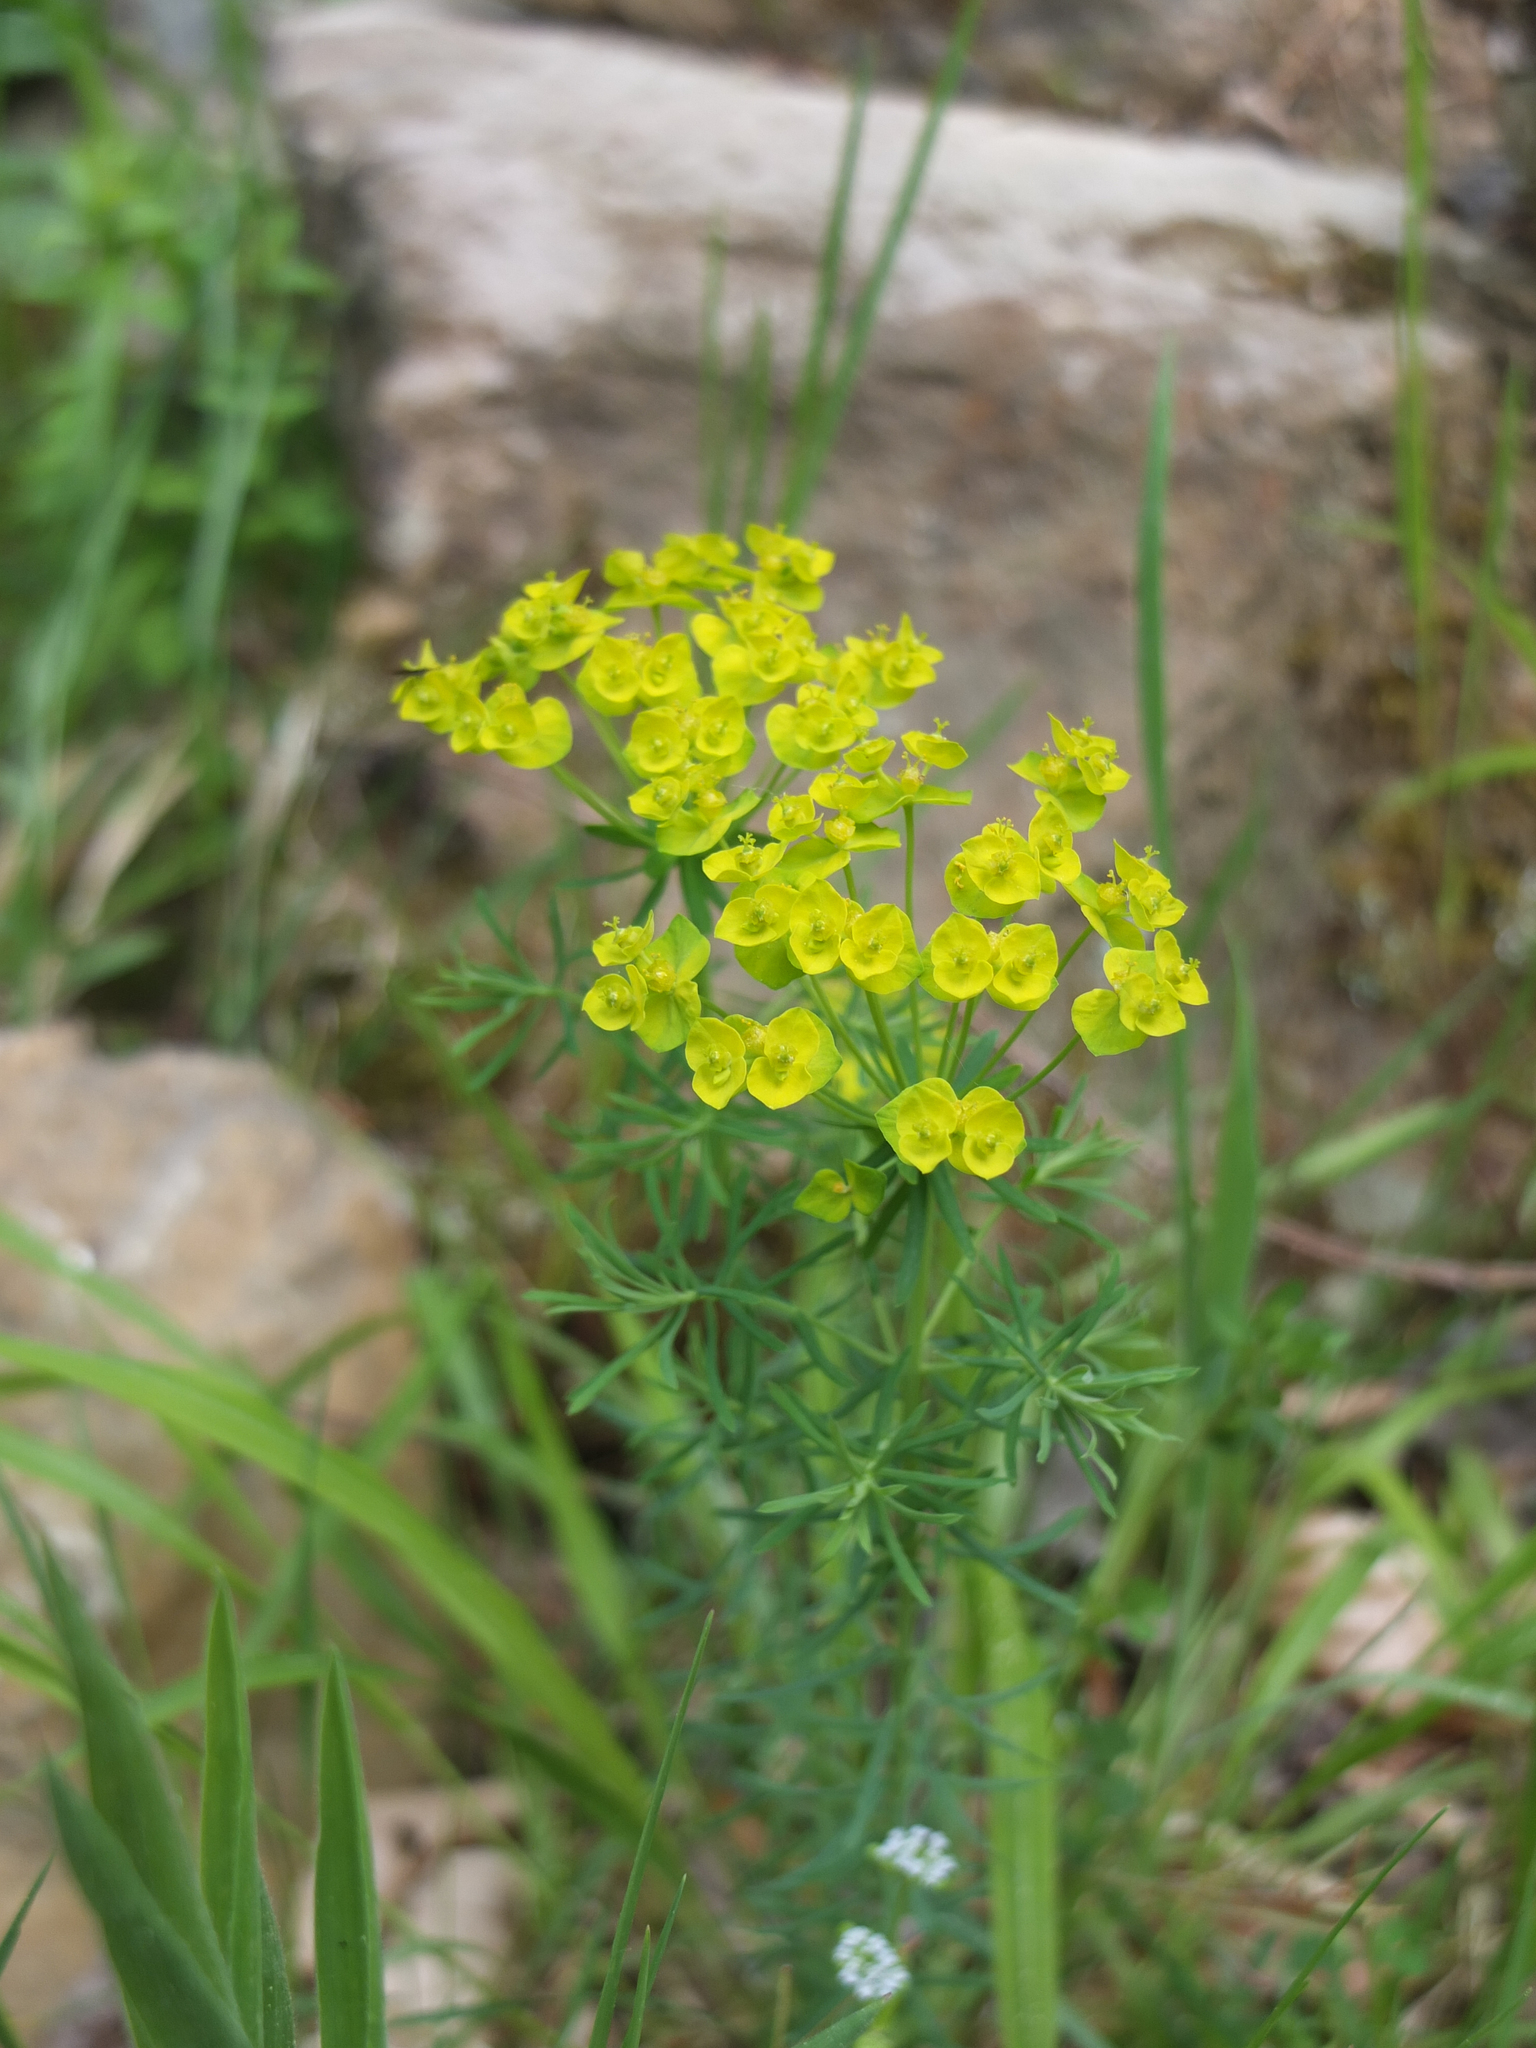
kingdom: Plantae
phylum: Tracheophyta
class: Magnoliopsida
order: Malpighiales
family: Euphorbiaceae
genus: Euphorbia
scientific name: Euphorbia cyparissias
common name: Cypress spurge
